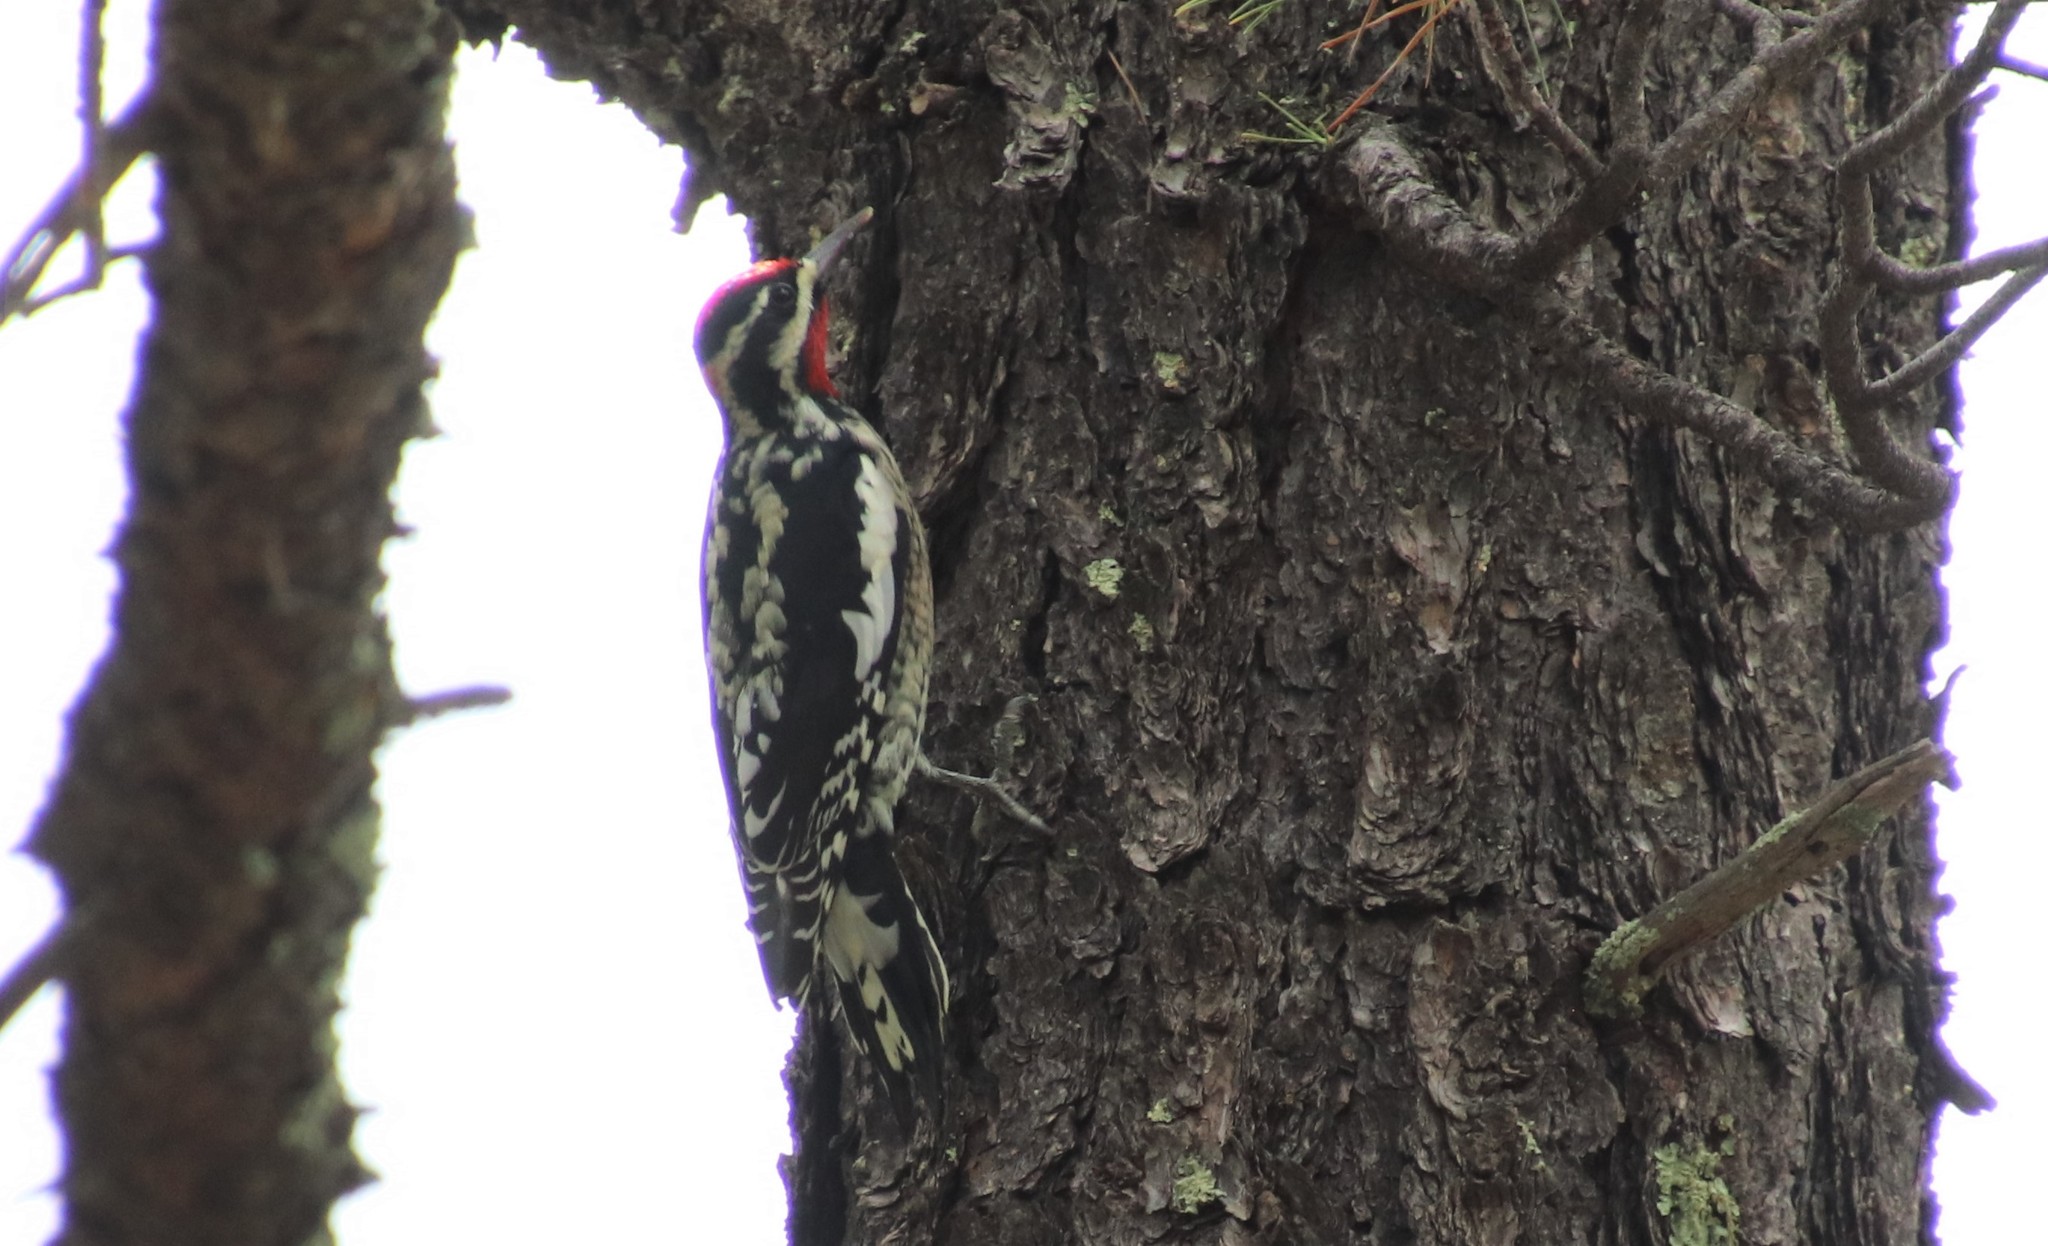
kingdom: Animalia
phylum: Chordata
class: Aves
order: Piciformes
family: Picidae
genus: Sphyrapicus
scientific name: Sphyrapicus nuchalis
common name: Red-naped sapsucker
